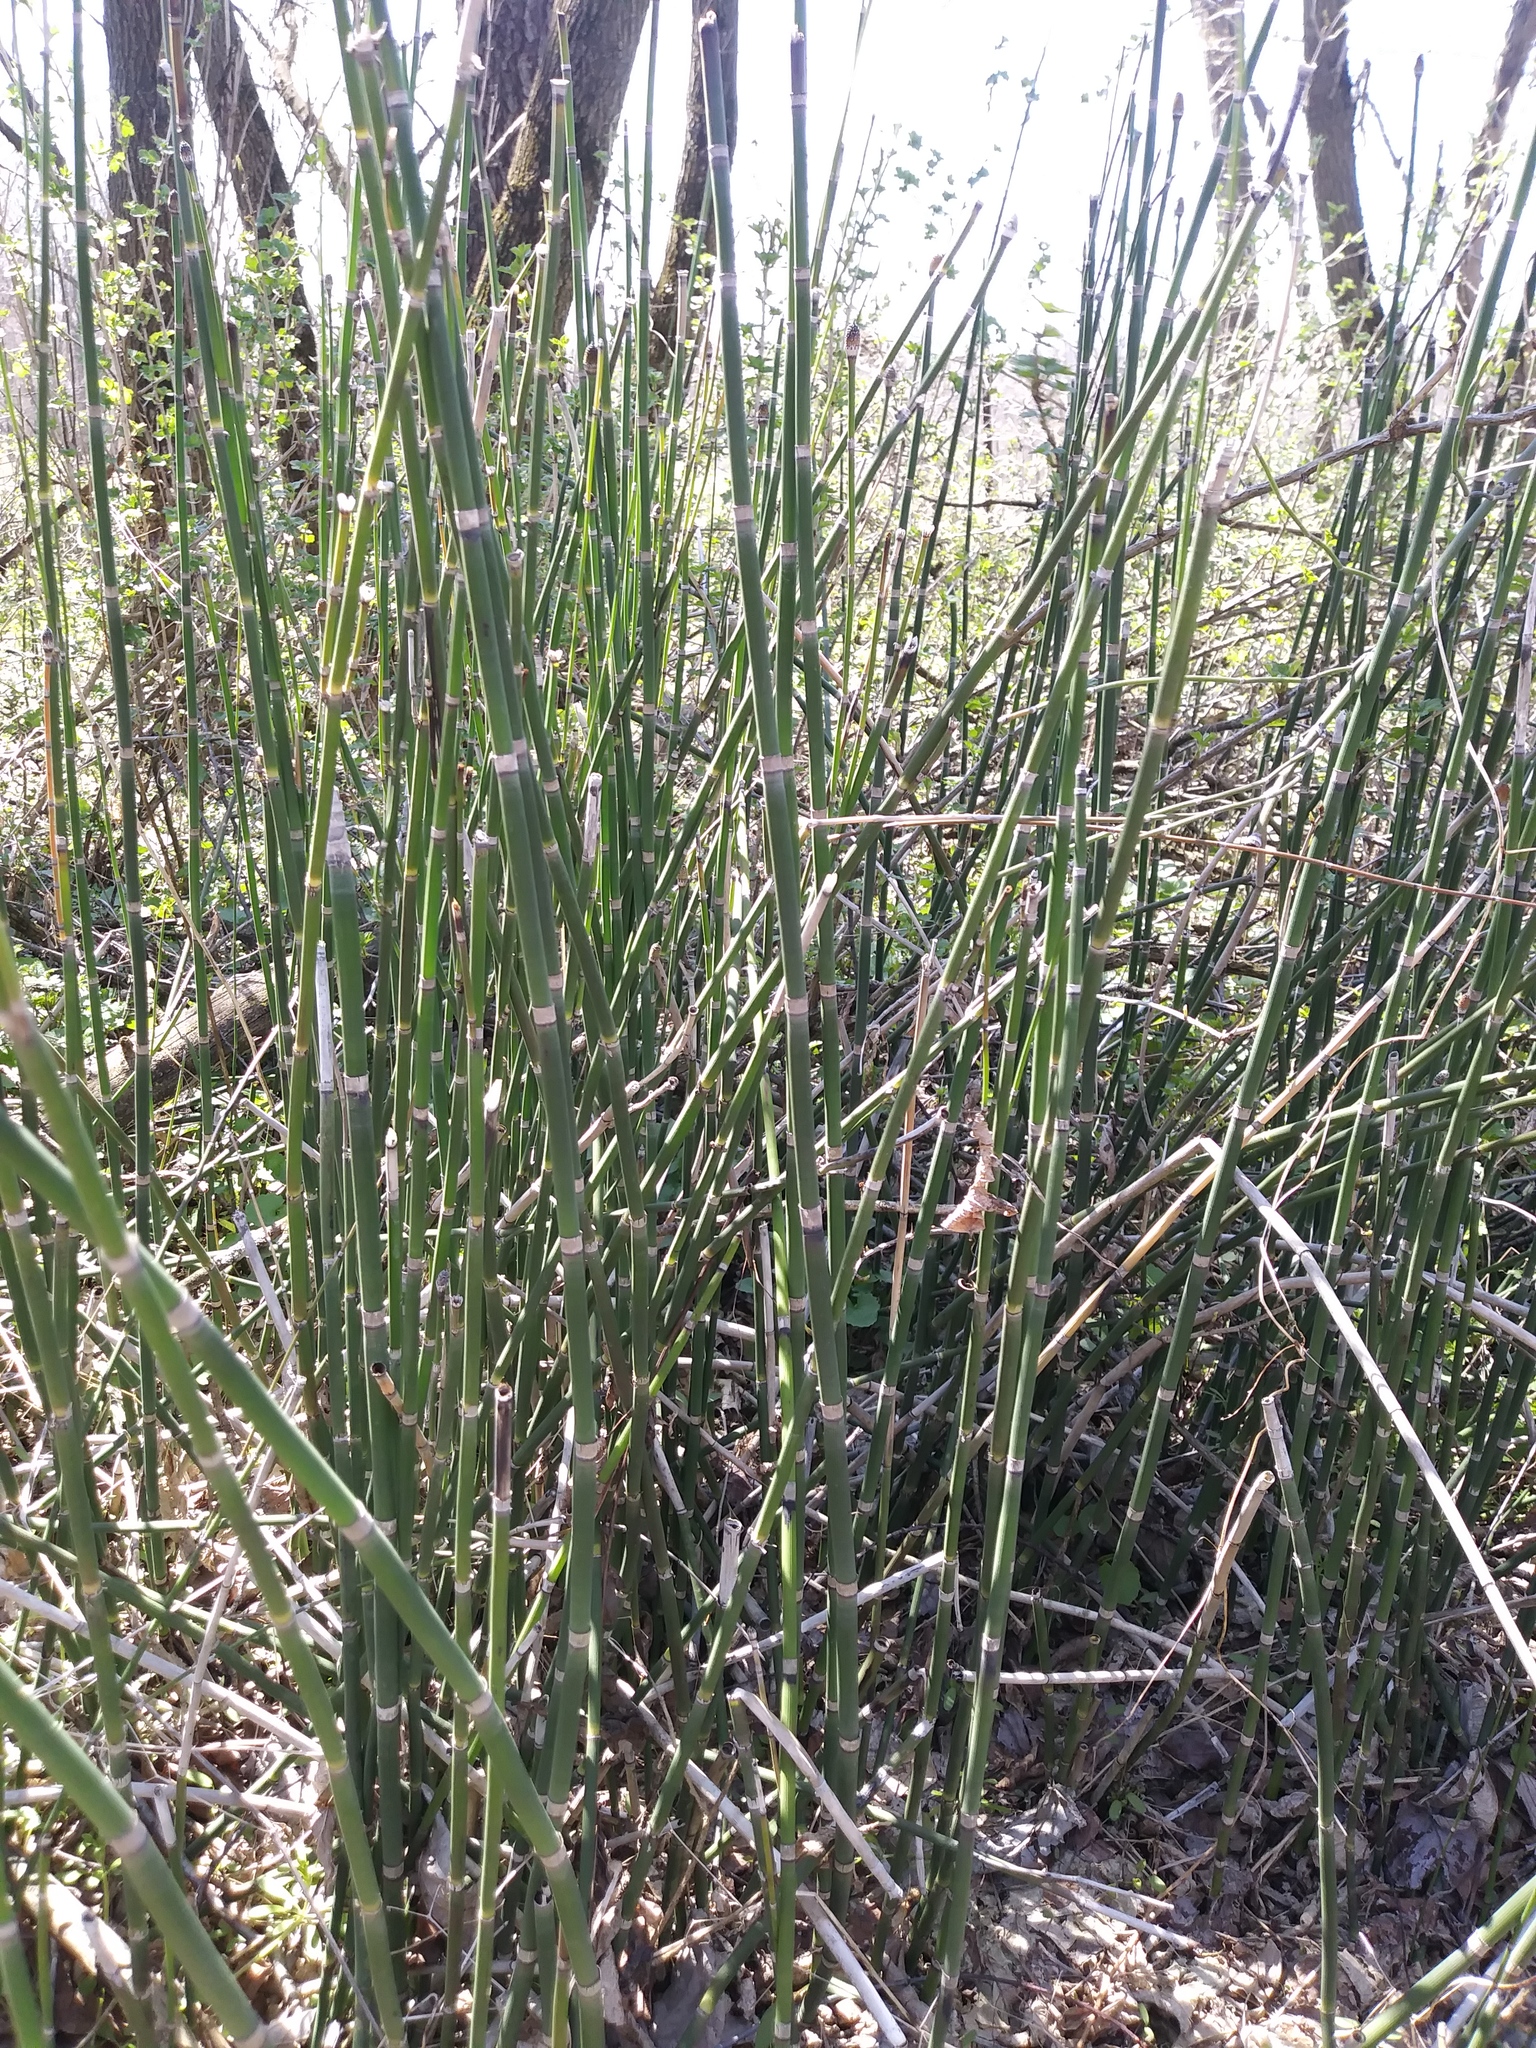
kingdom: Plantae
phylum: Tracheophyta
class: Polypodiopsida
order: Equisetales
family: Equisetaceae
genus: Equisetum
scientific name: Equisetum praealtum
